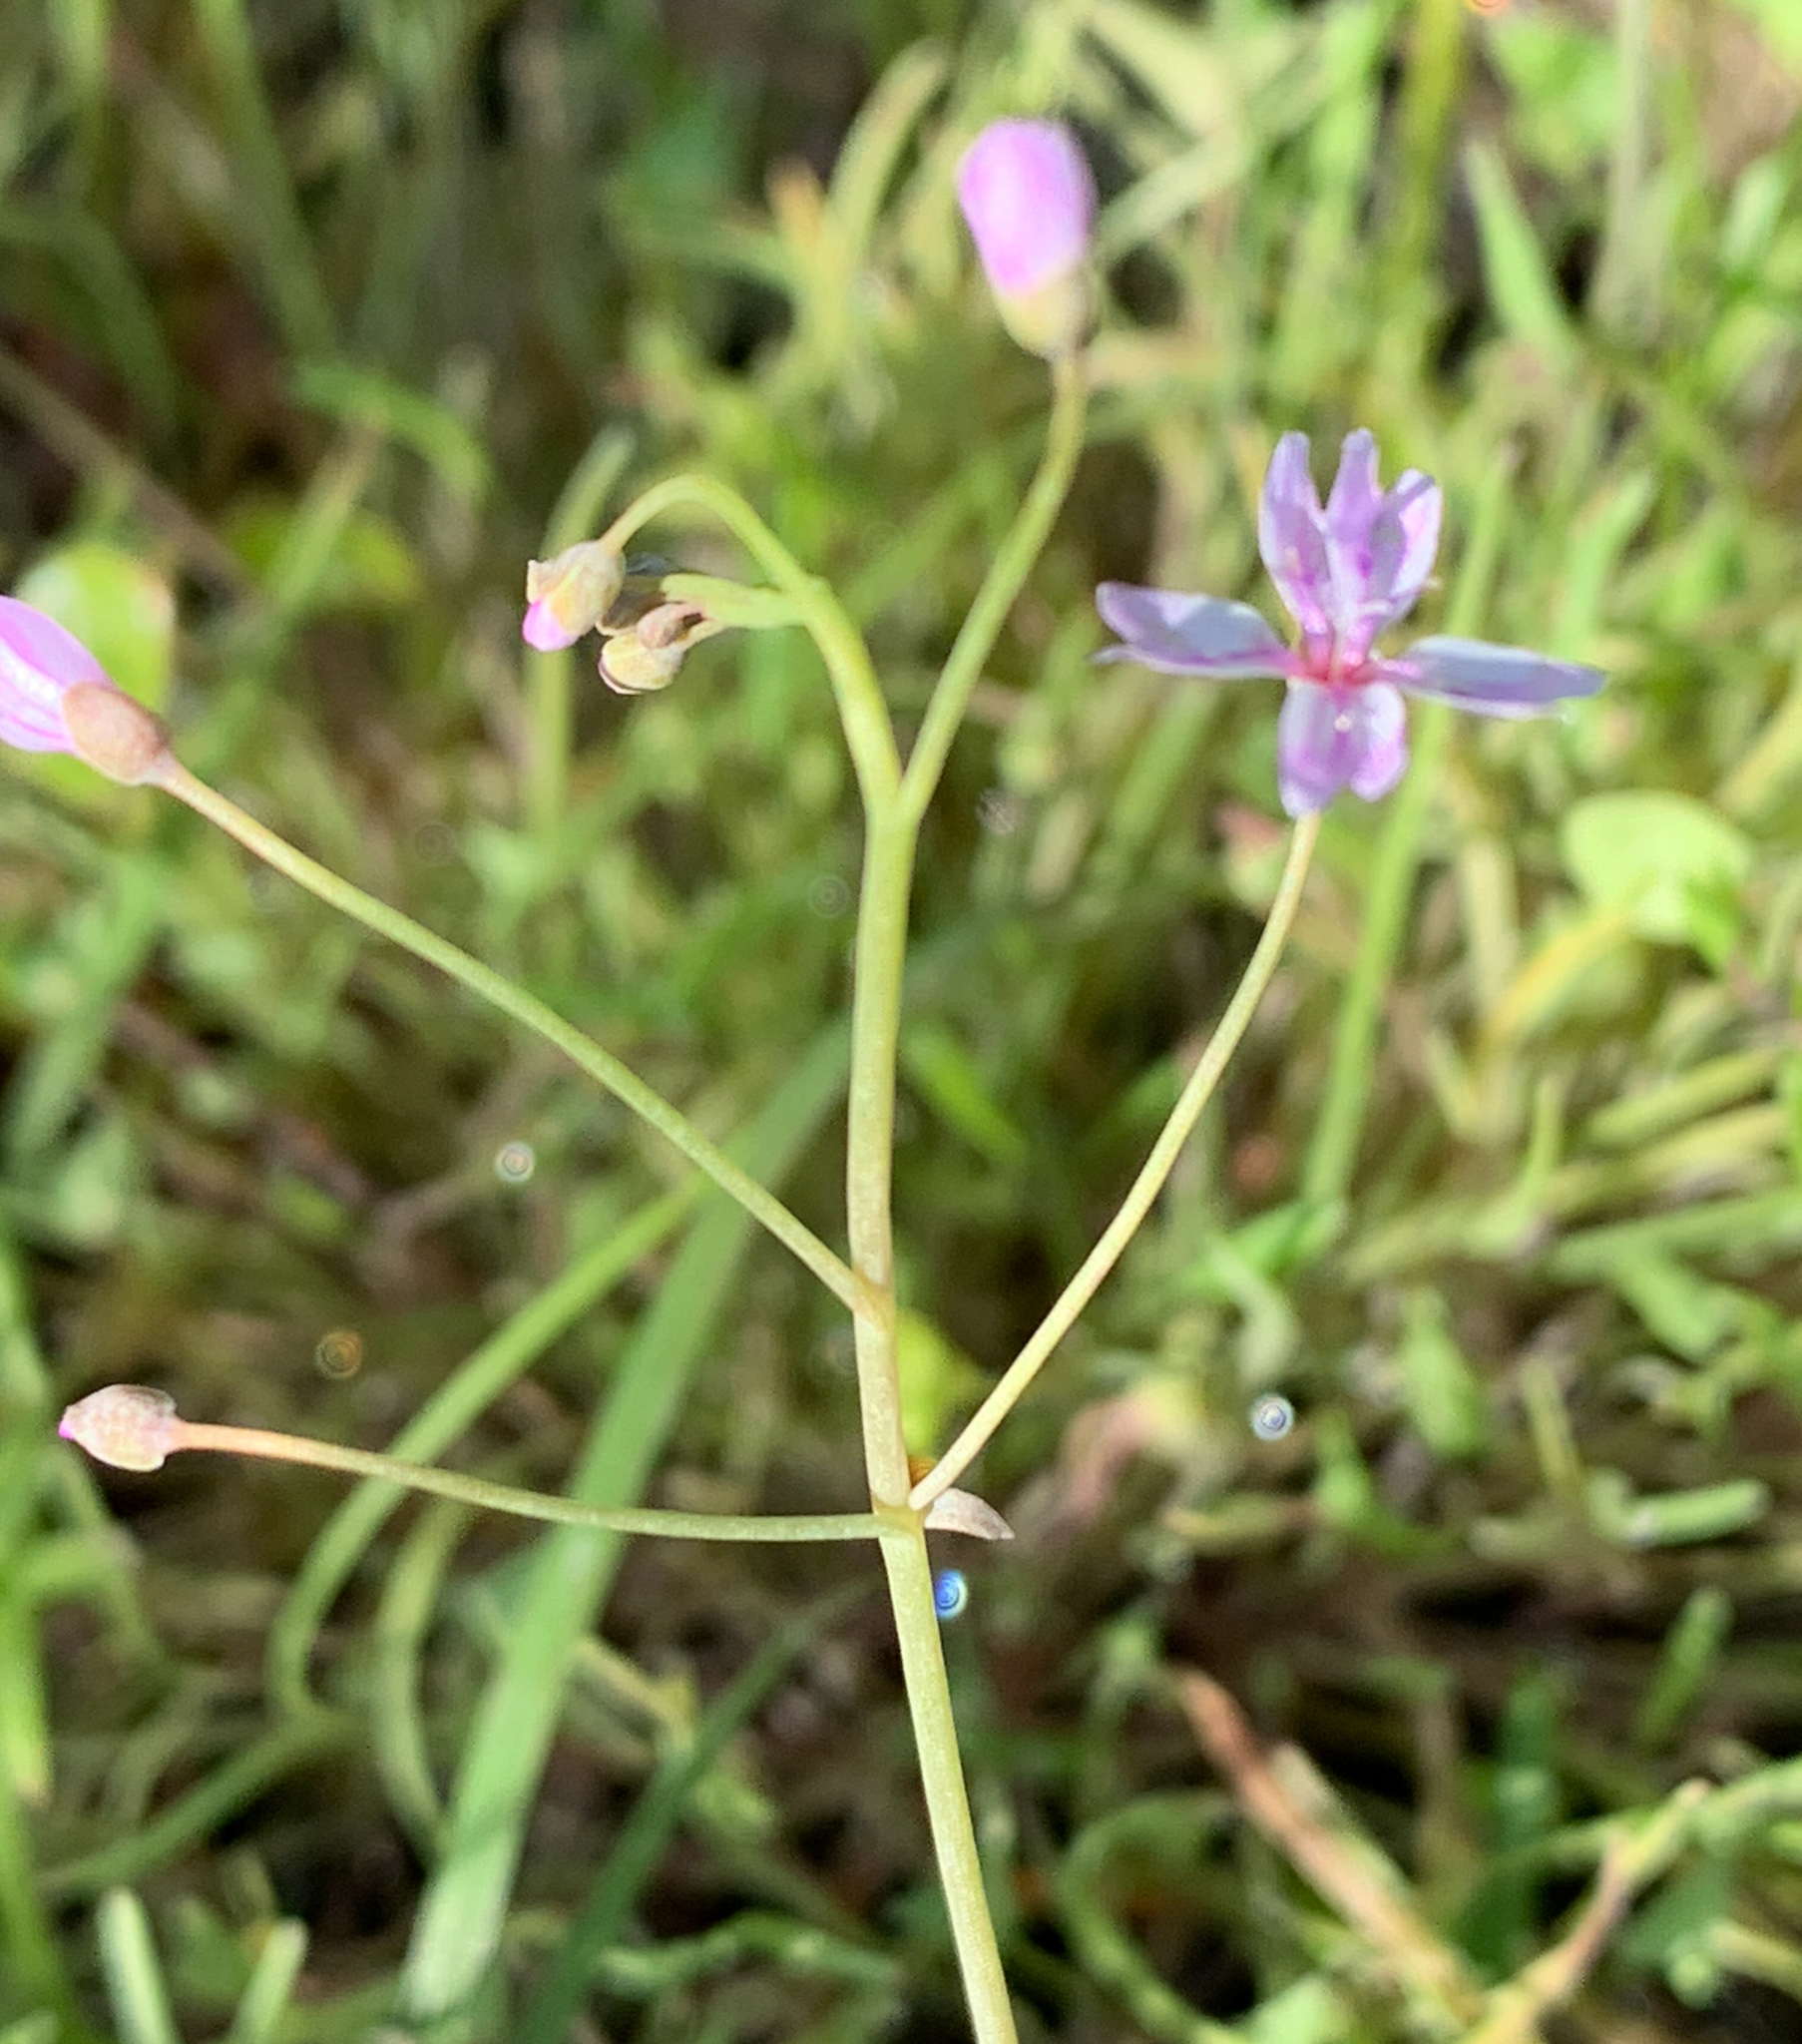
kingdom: Plantae
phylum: Tracheophyta
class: Magnoliopsida
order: Caryophyllales
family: Montiaceae
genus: Claytonia
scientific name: Claytonia gypsophiloides
